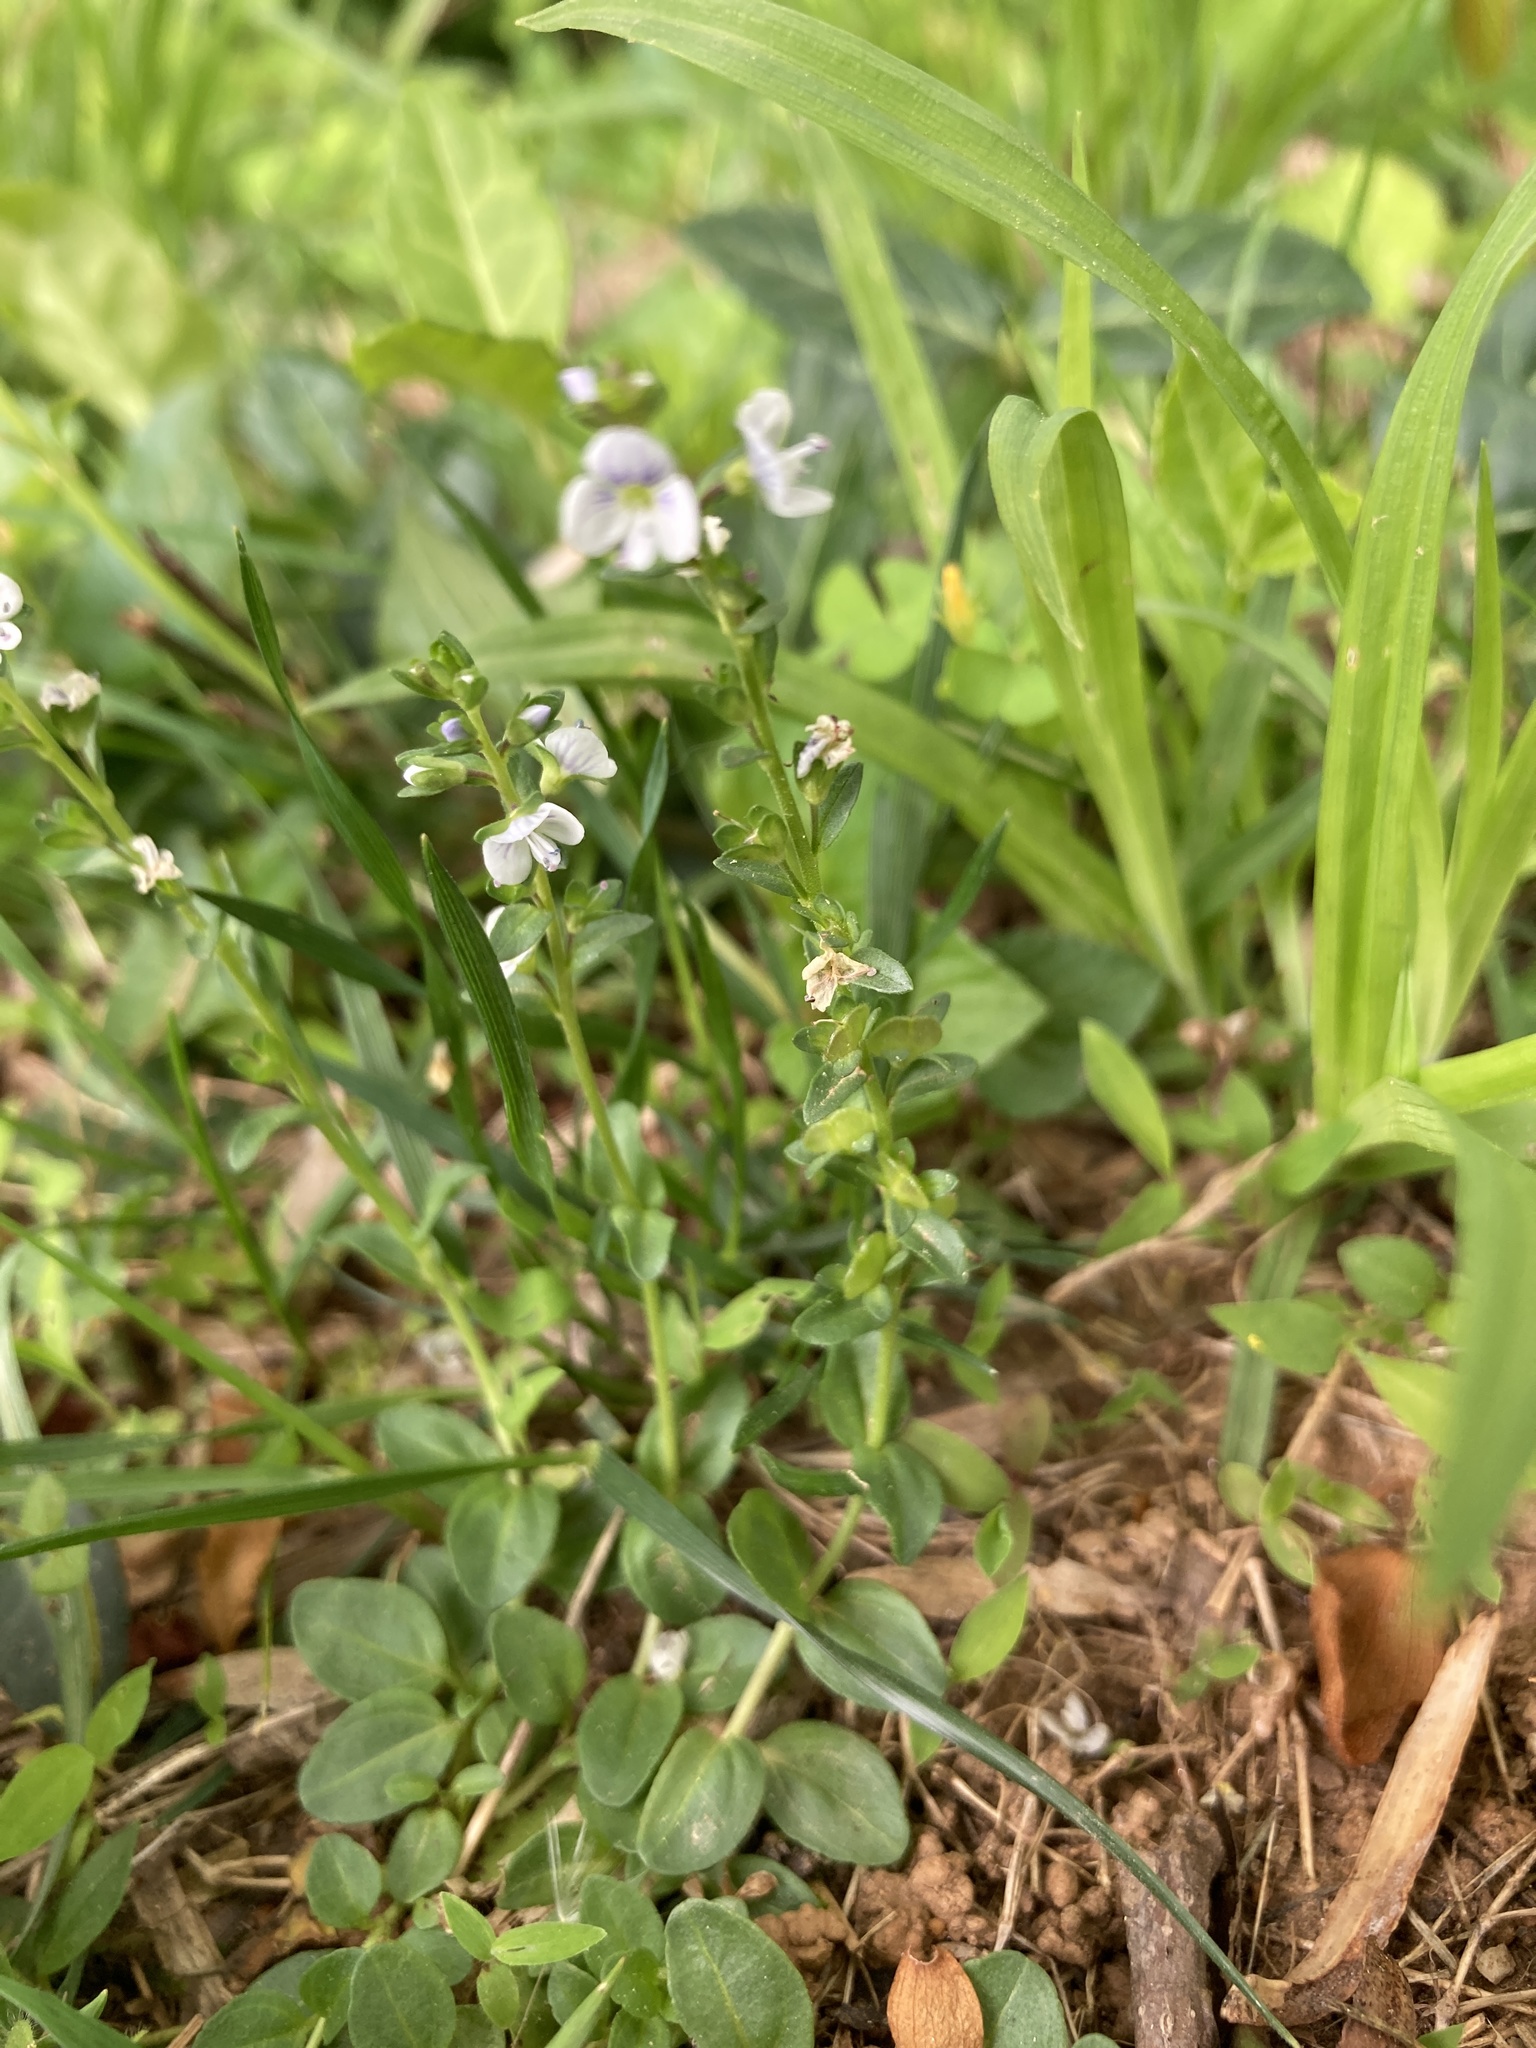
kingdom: Plantae
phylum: Tracheophyta
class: Magnoliopsida
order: Lamiales
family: Plantaginaceae
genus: Veronica
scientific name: Veronica serpyllifolia
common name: Thyme-leaved speedwell
